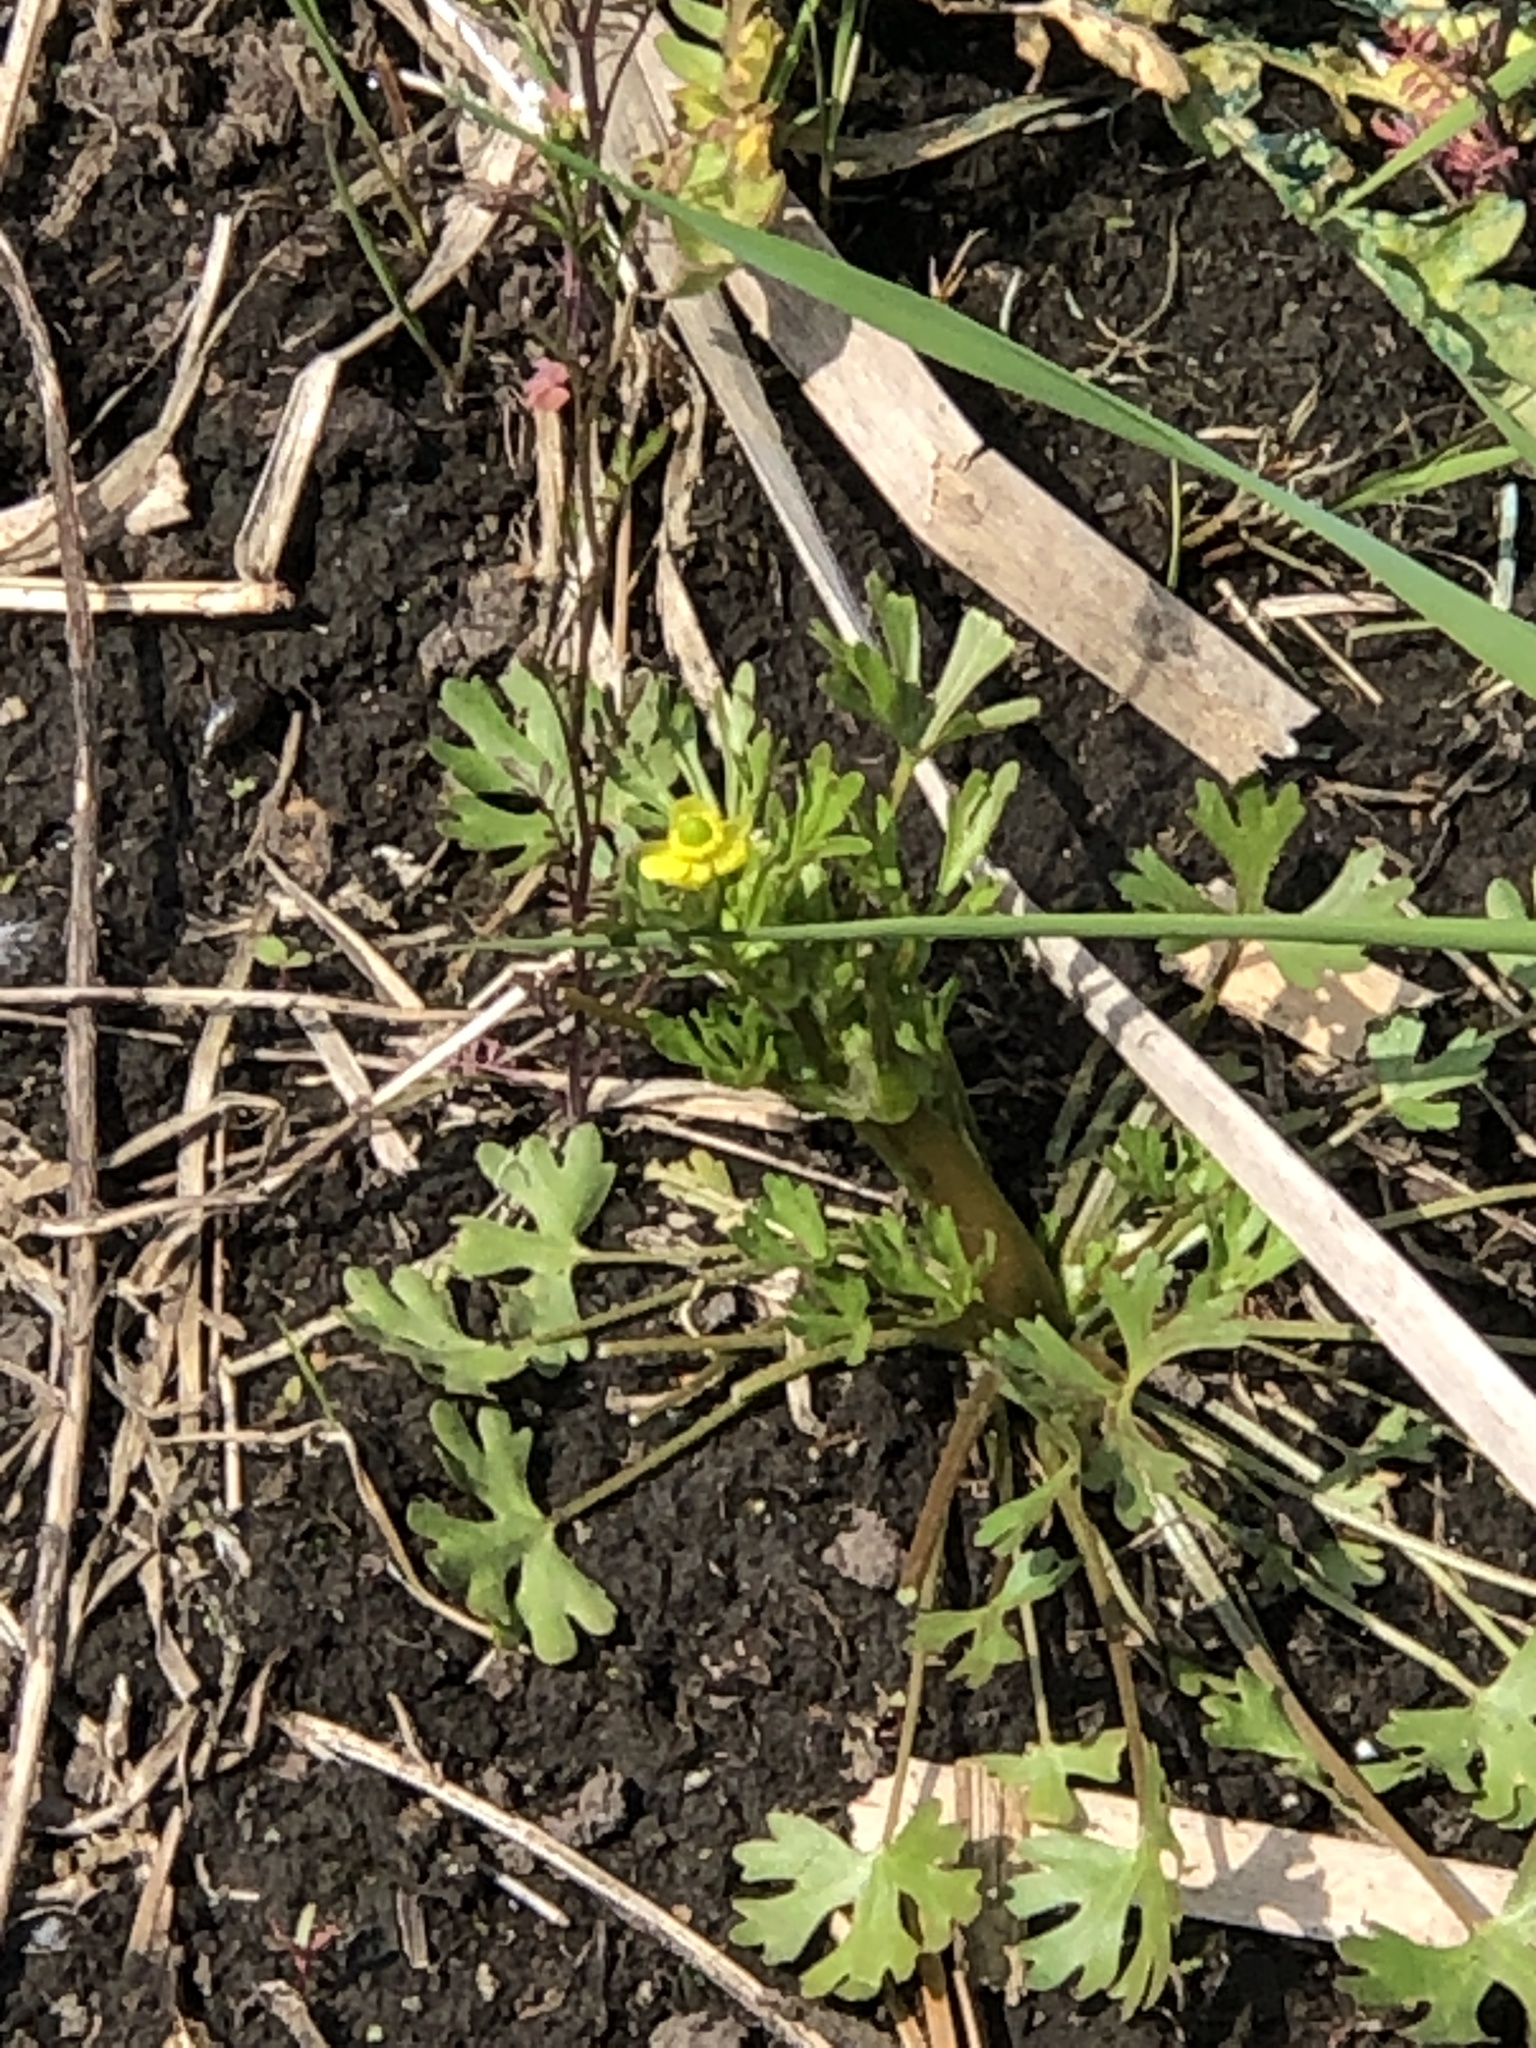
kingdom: Plantae
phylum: Tracheophyta
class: Magnoliopsida
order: Ranunculales
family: Ranunculaceae
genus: Ranunculus
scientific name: Ranunculus sceleratus
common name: Celery-leaved buttercup
